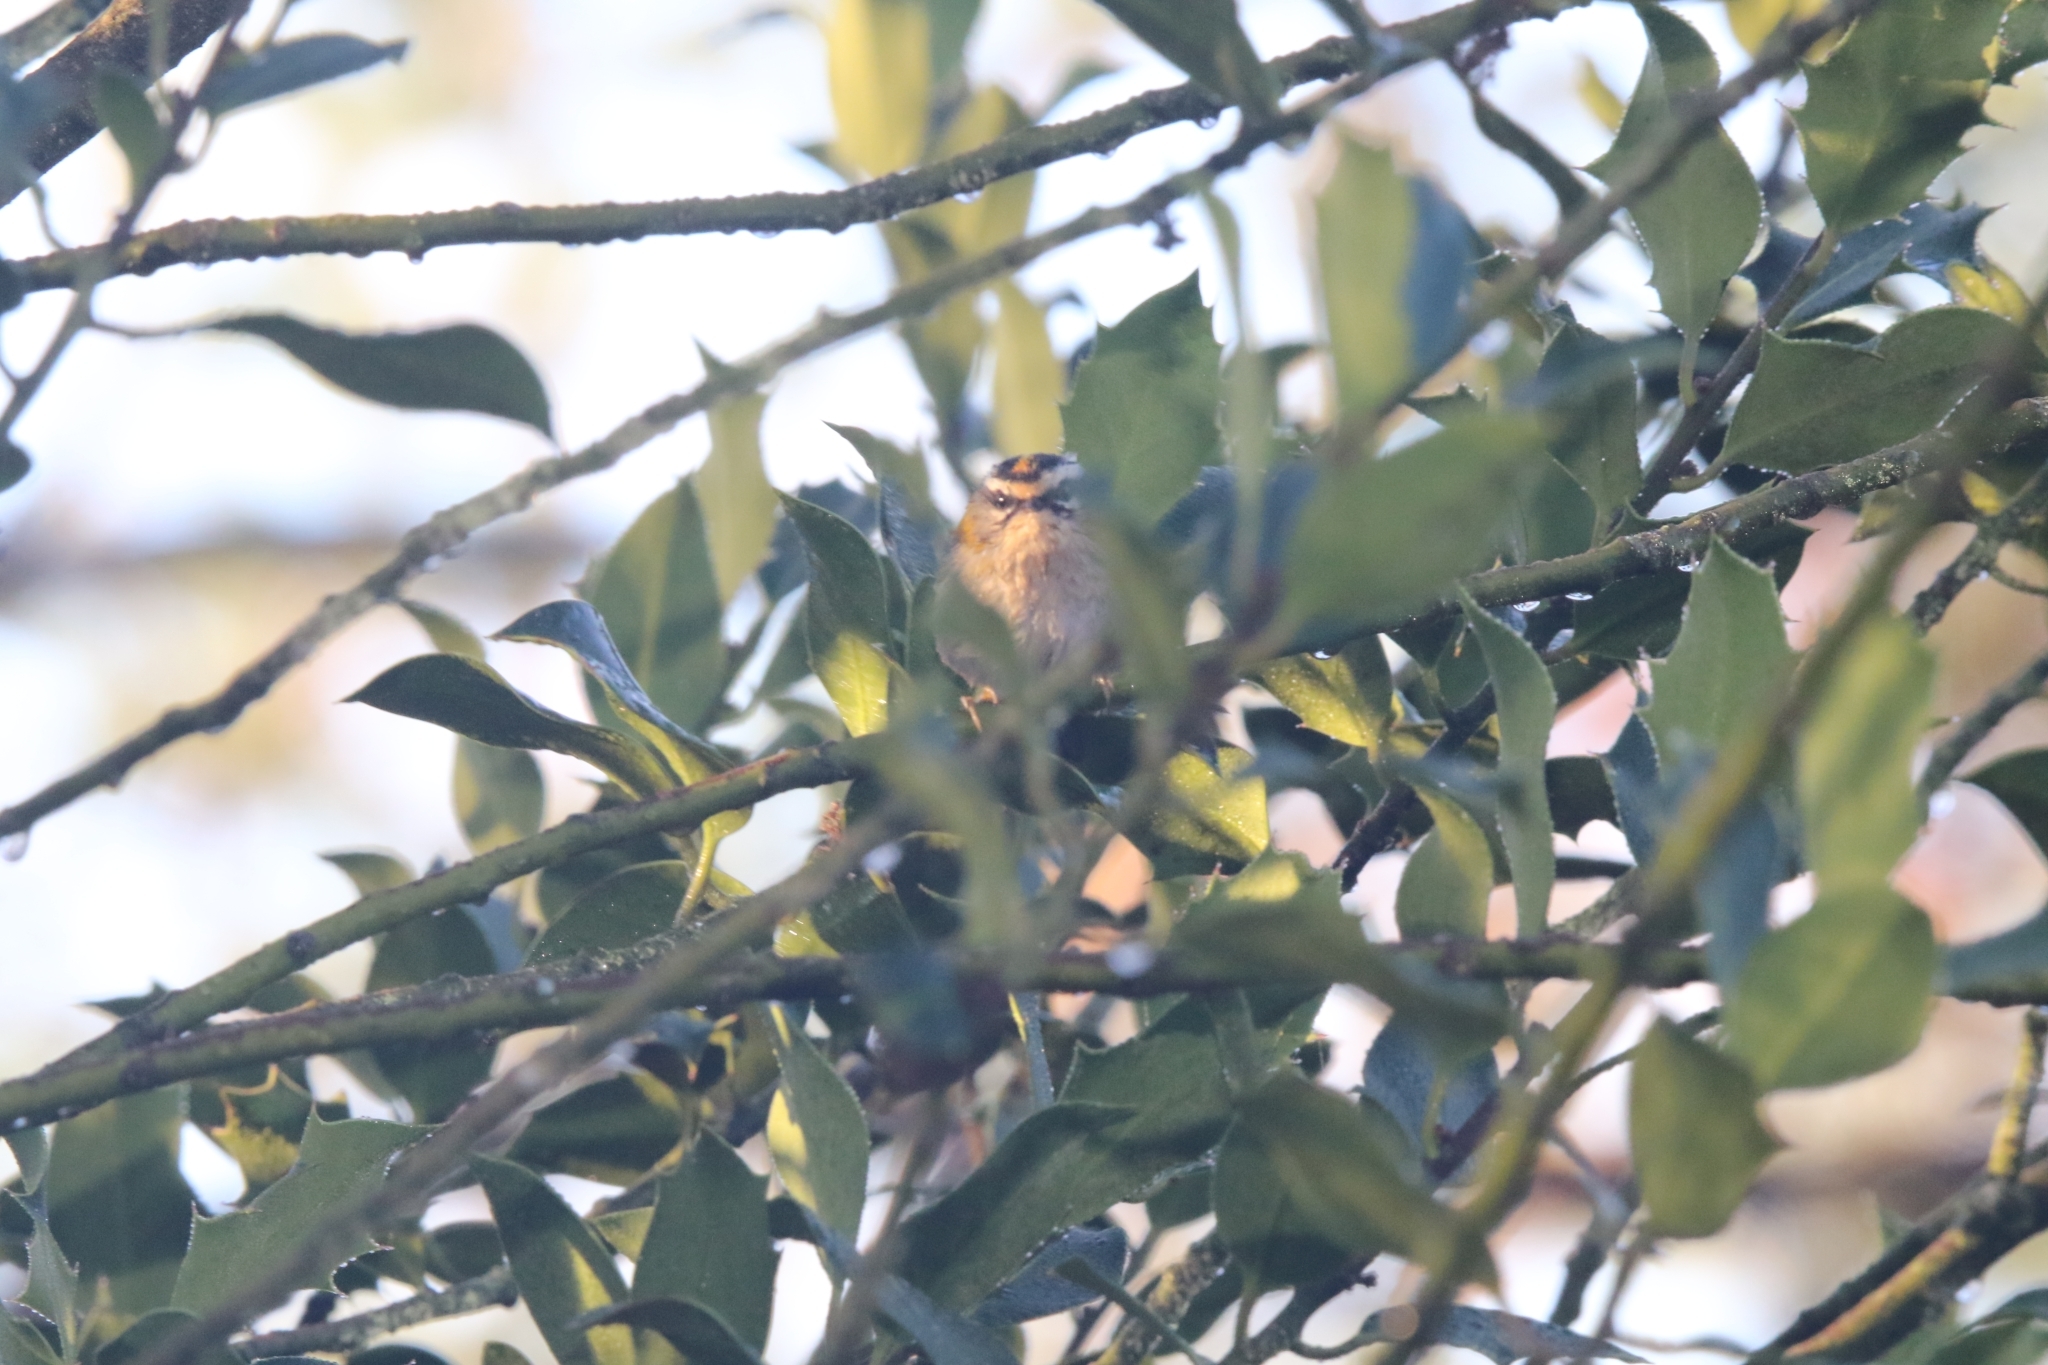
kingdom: Animalia
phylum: Chordata
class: Aves
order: Passeriformes
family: Regulidae
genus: Regulus
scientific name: Regulus ignicapilla
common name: Firecrest
